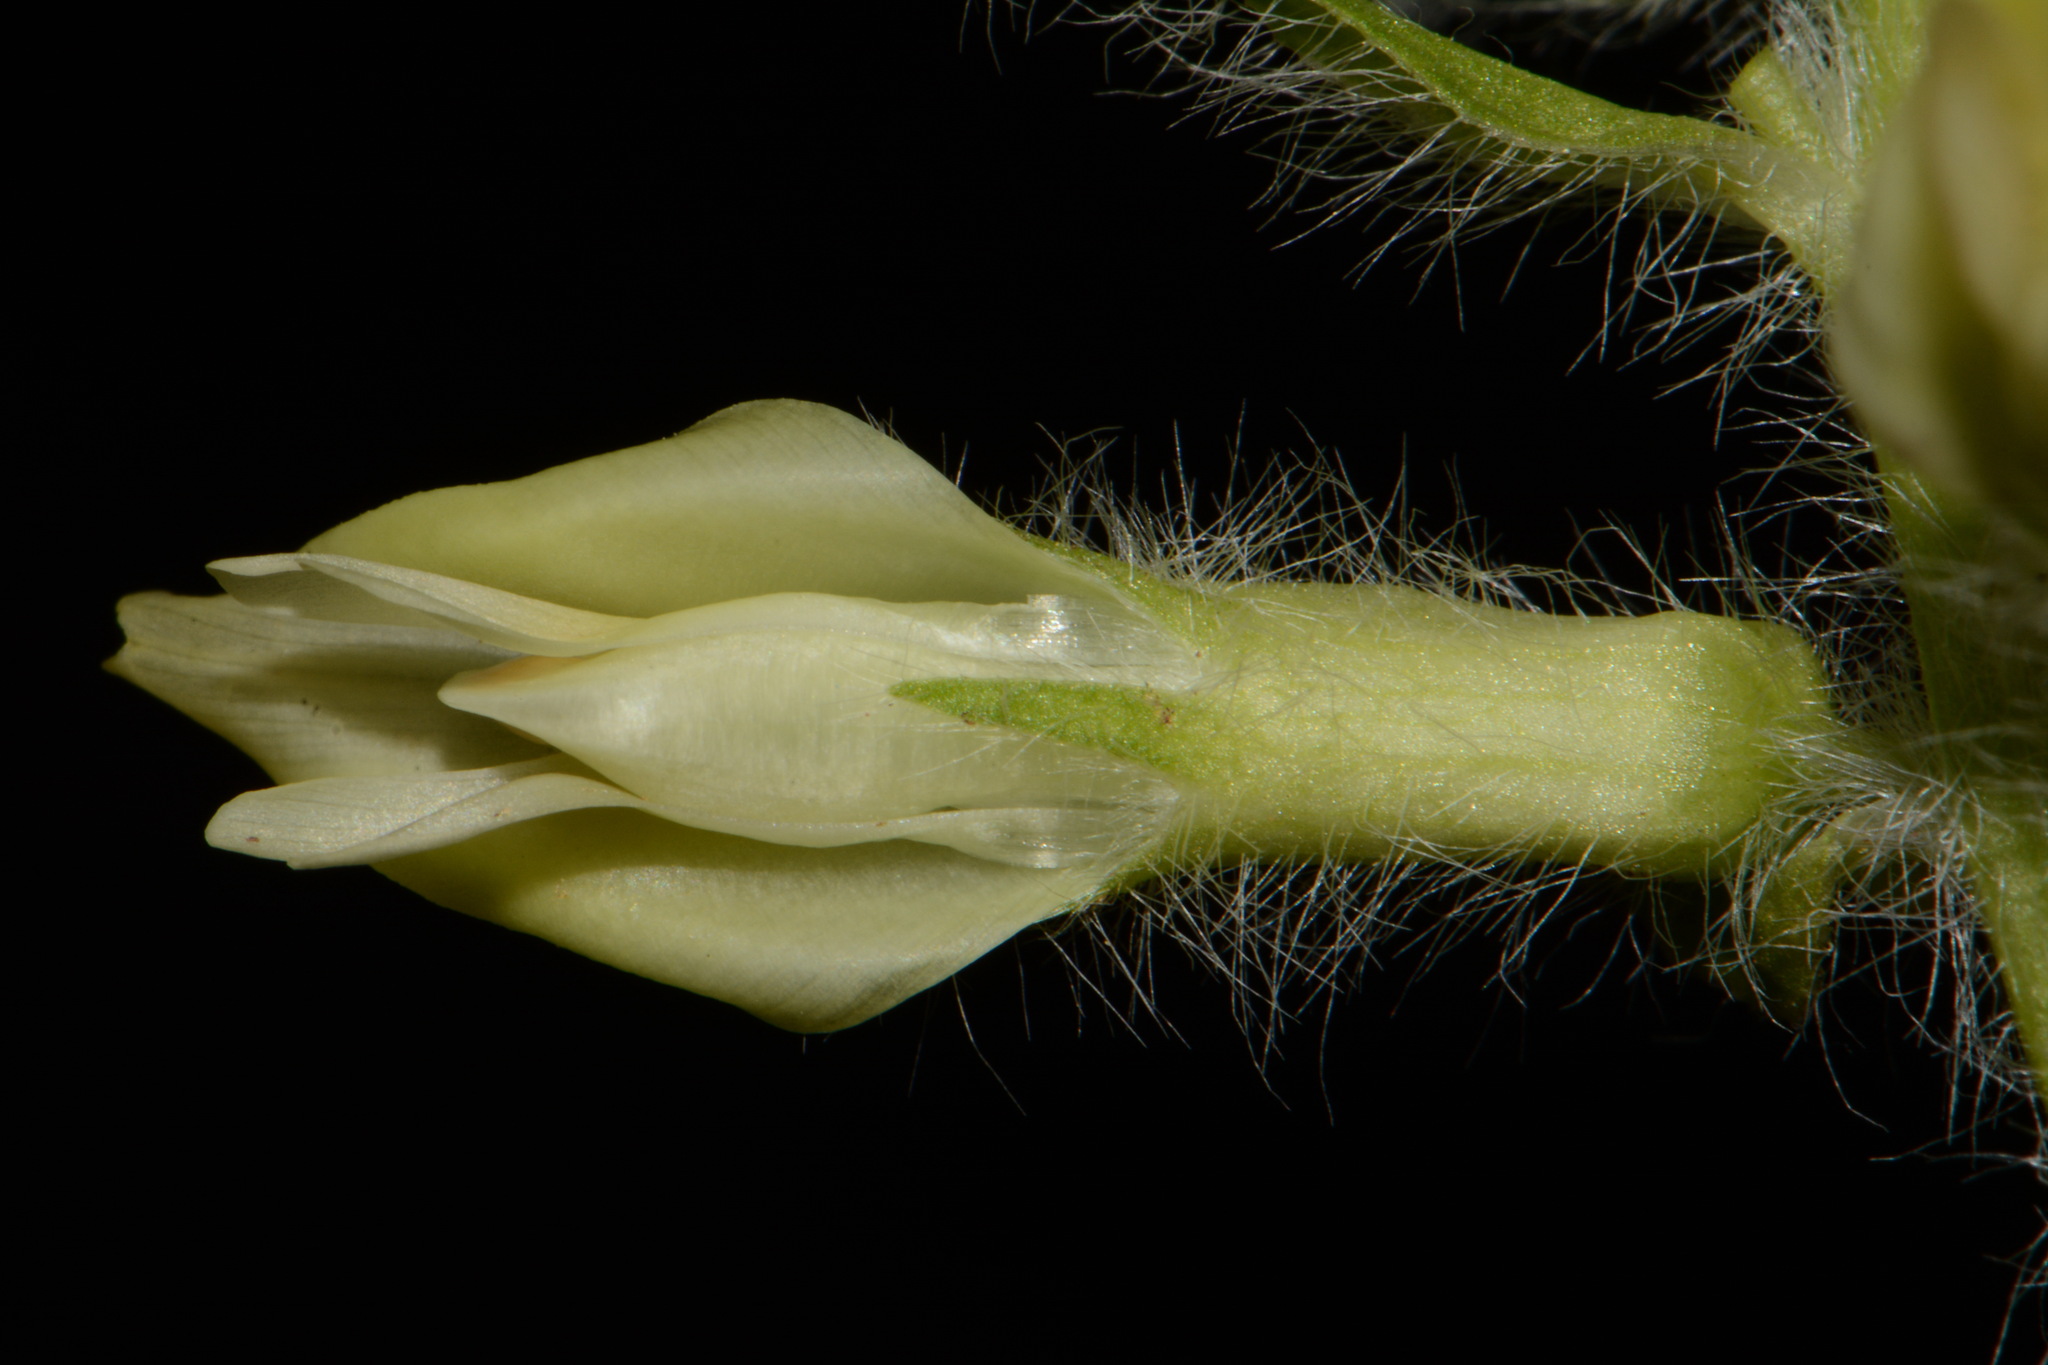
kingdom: Plantae
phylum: Tracheophyta
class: Magnoliopsida
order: Fabales
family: Fabaceae
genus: Astragalus
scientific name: Astragalus tennesseensis
